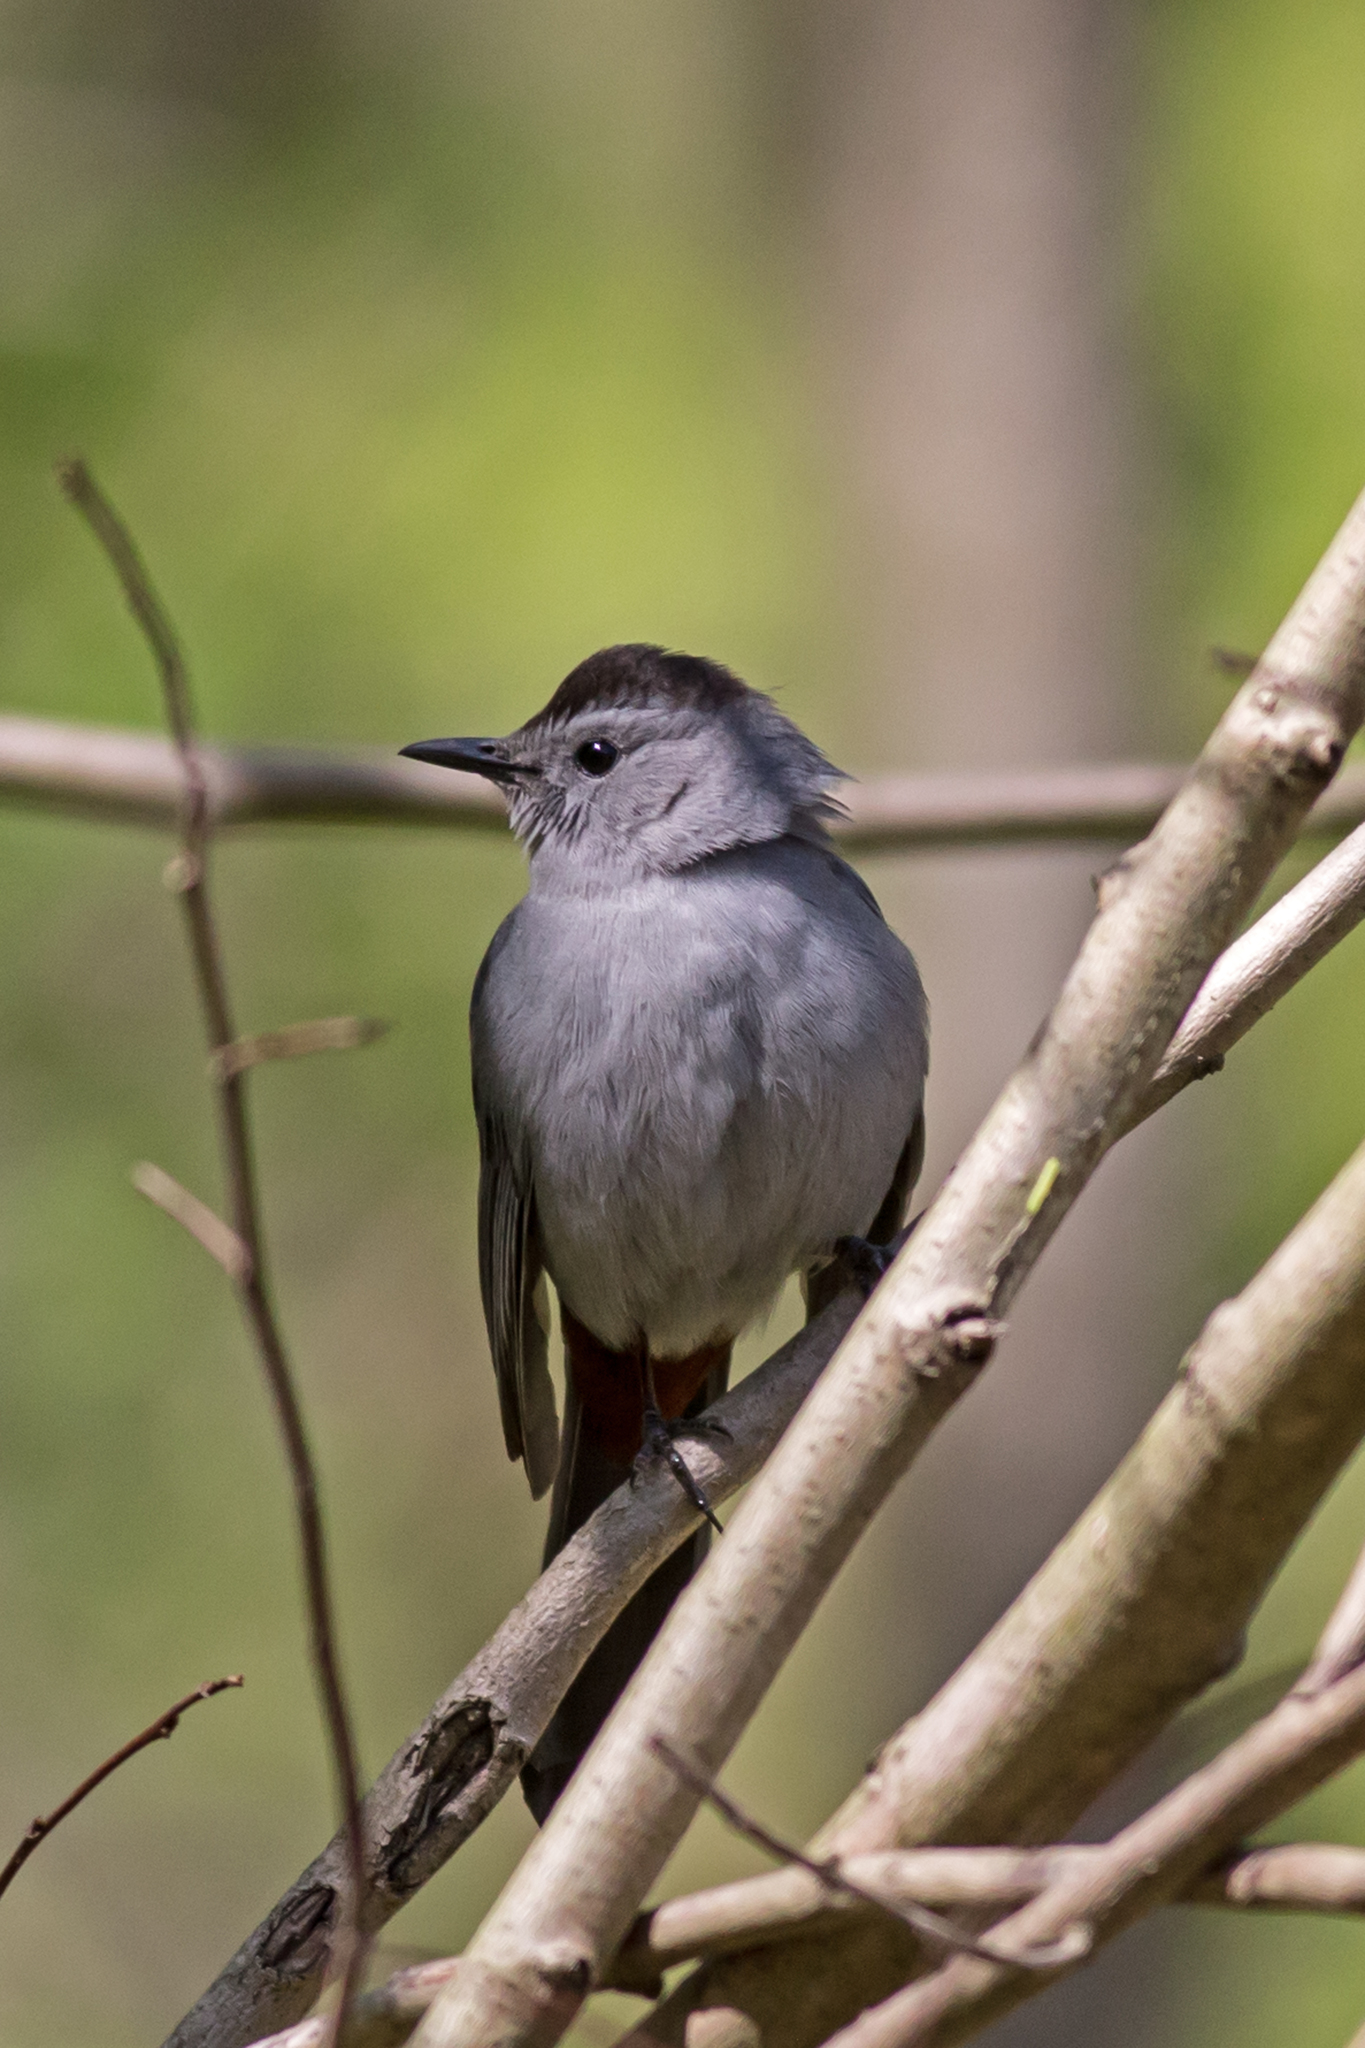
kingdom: Animalia
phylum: Chordata
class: Aves
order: Passeriformes
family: Mimidae
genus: Dumetella
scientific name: Dumetella carolinensis
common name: Gray catbird
